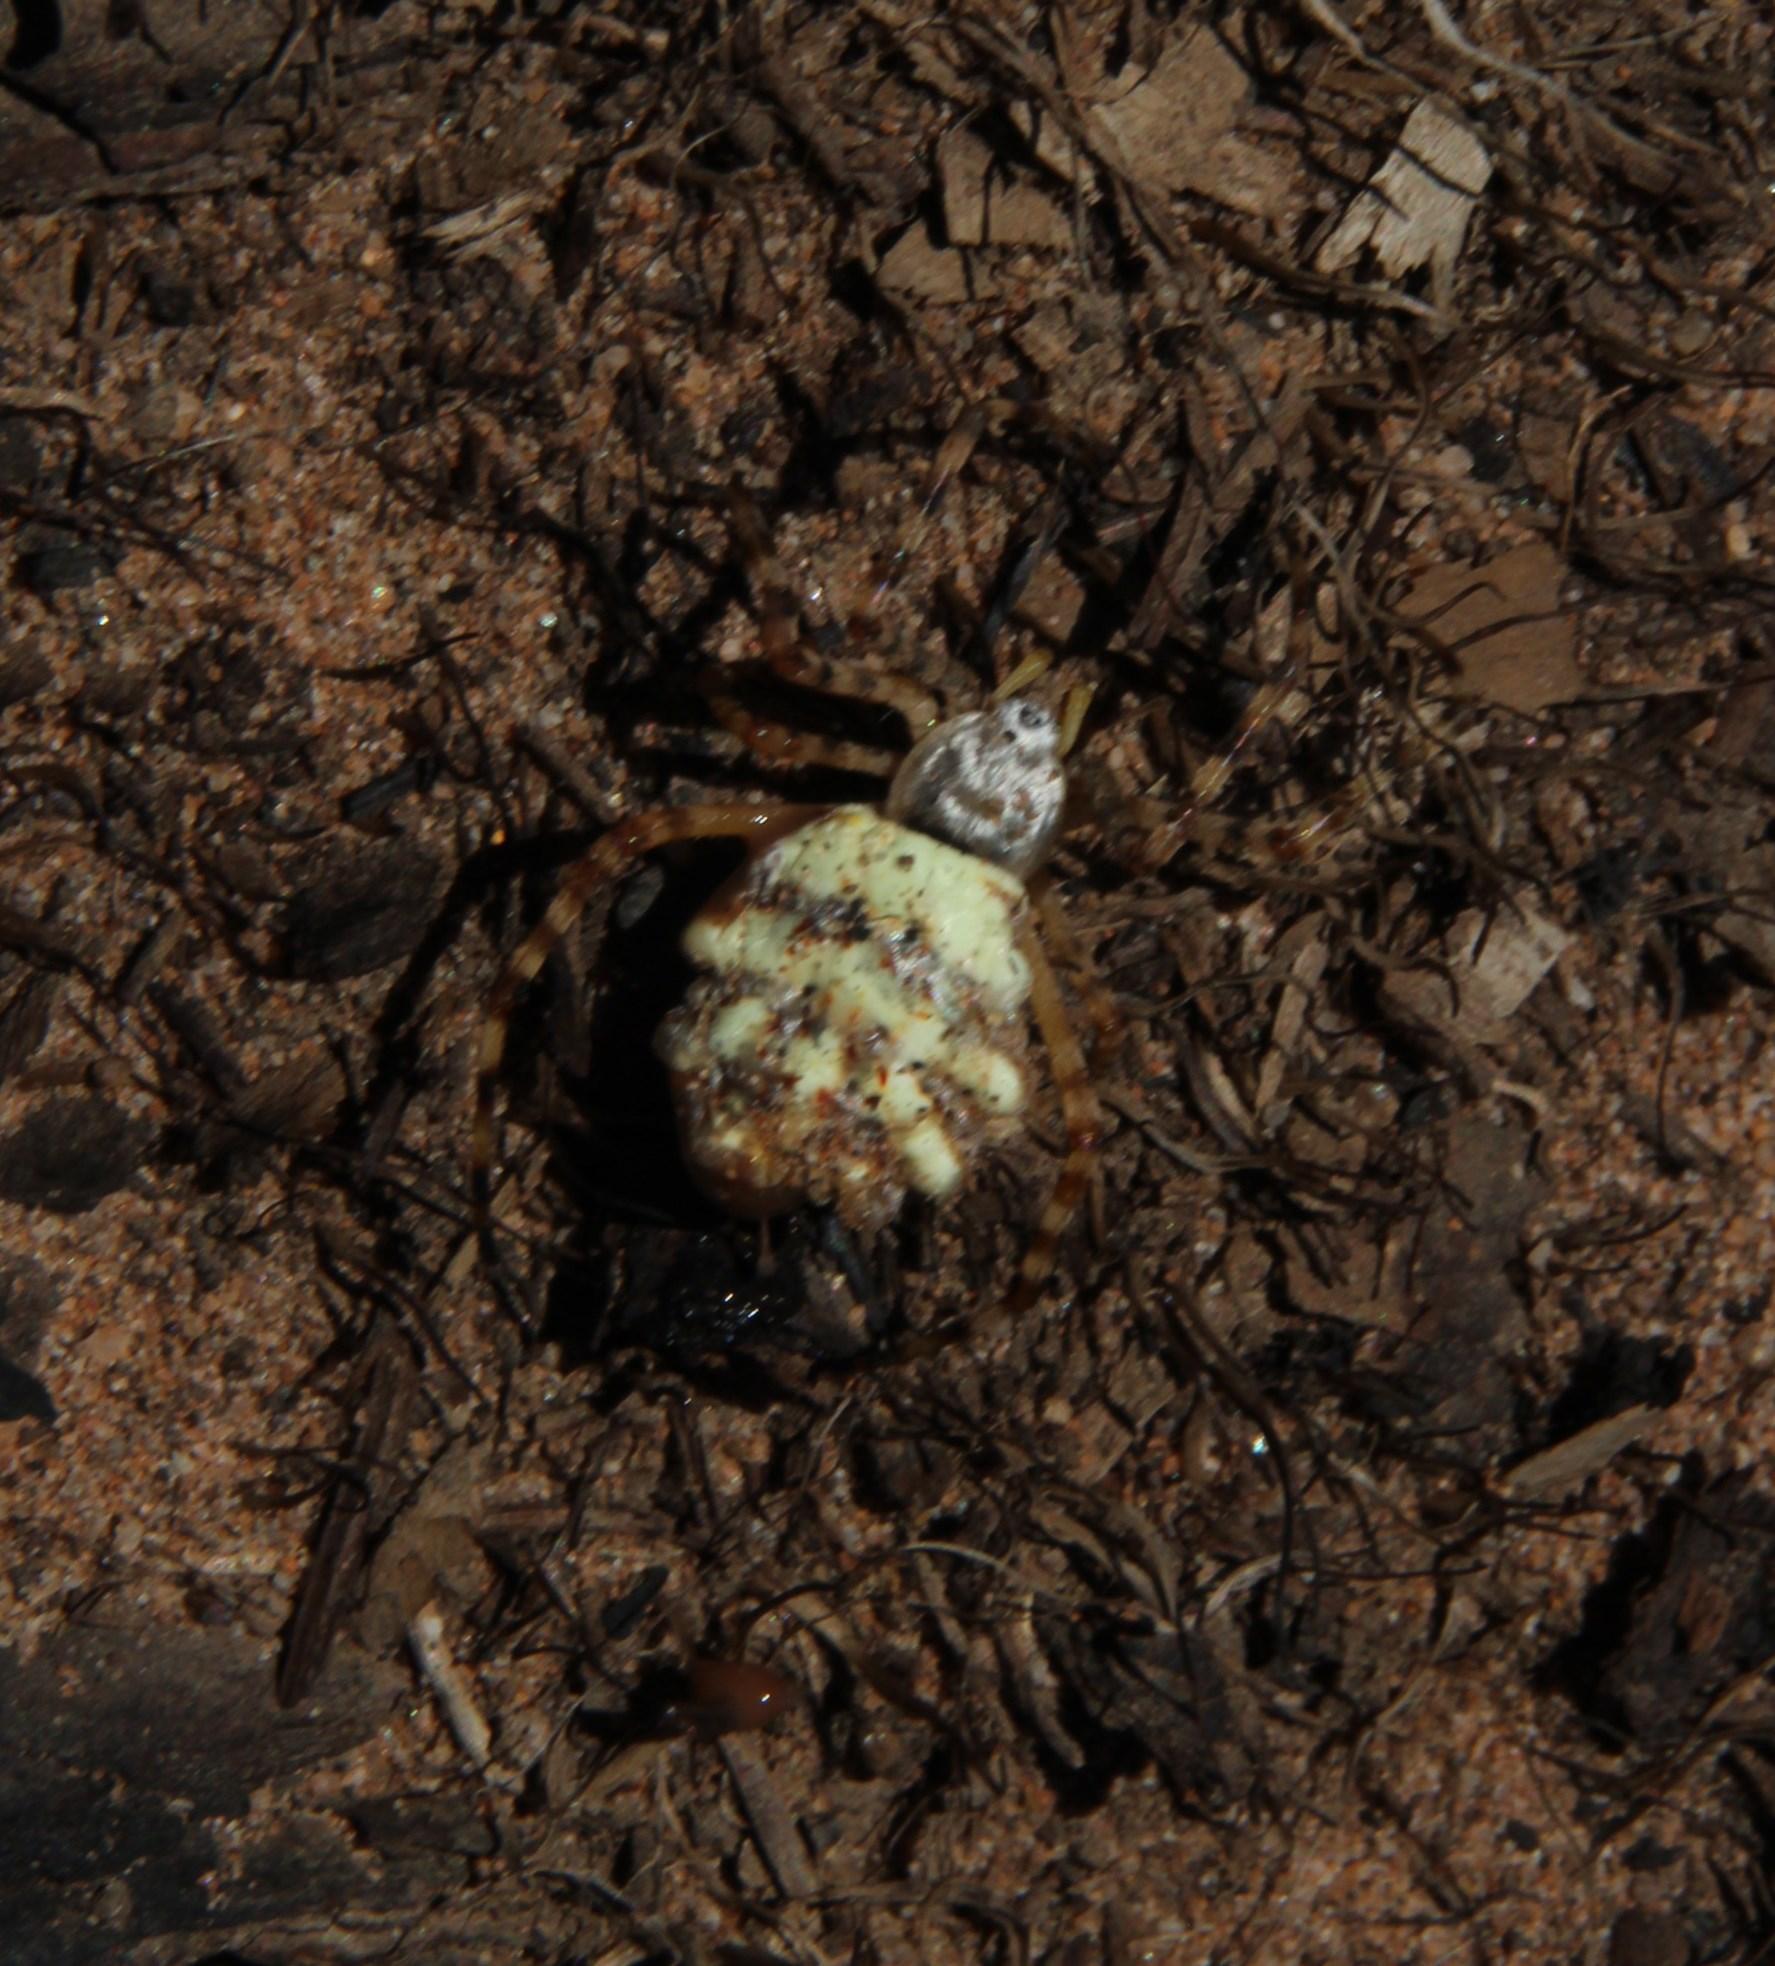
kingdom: Animalia
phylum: Arthropoda
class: Arachnida
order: Araneae
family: Araneidae
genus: Argiope
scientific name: Argiope australis
